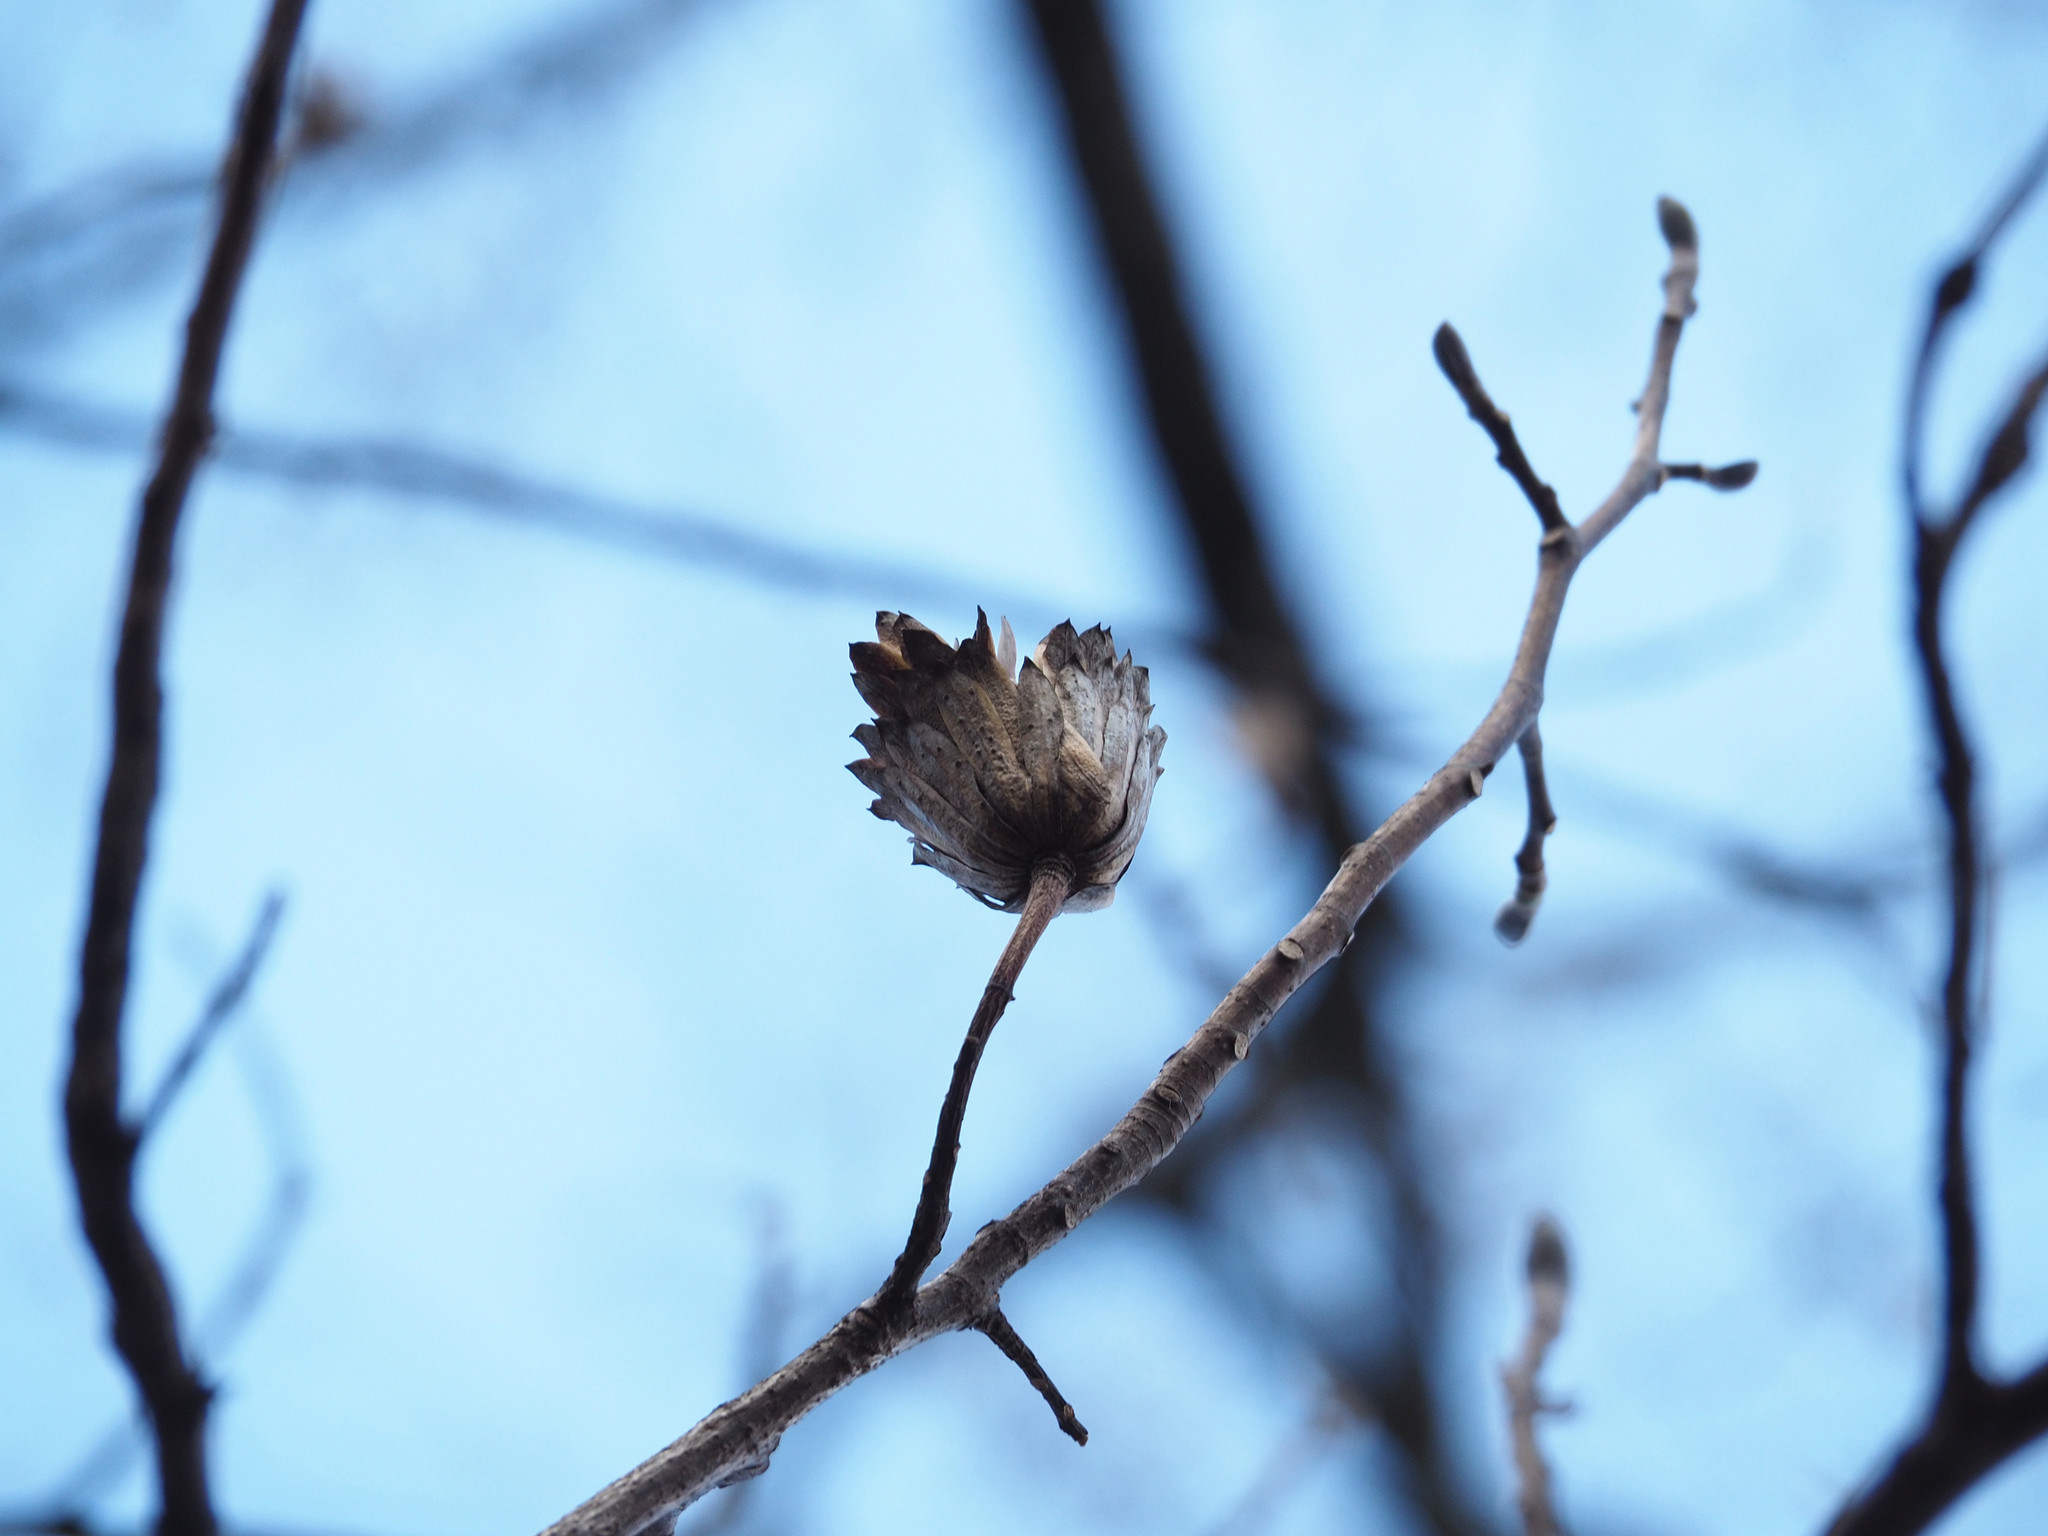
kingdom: Plantae
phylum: Tracheophyta
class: Magnoliopsida
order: Magnoliales
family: Magnoliaceae
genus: Liriodendron
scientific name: Liriodendron tulipifera
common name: Tulip tree
